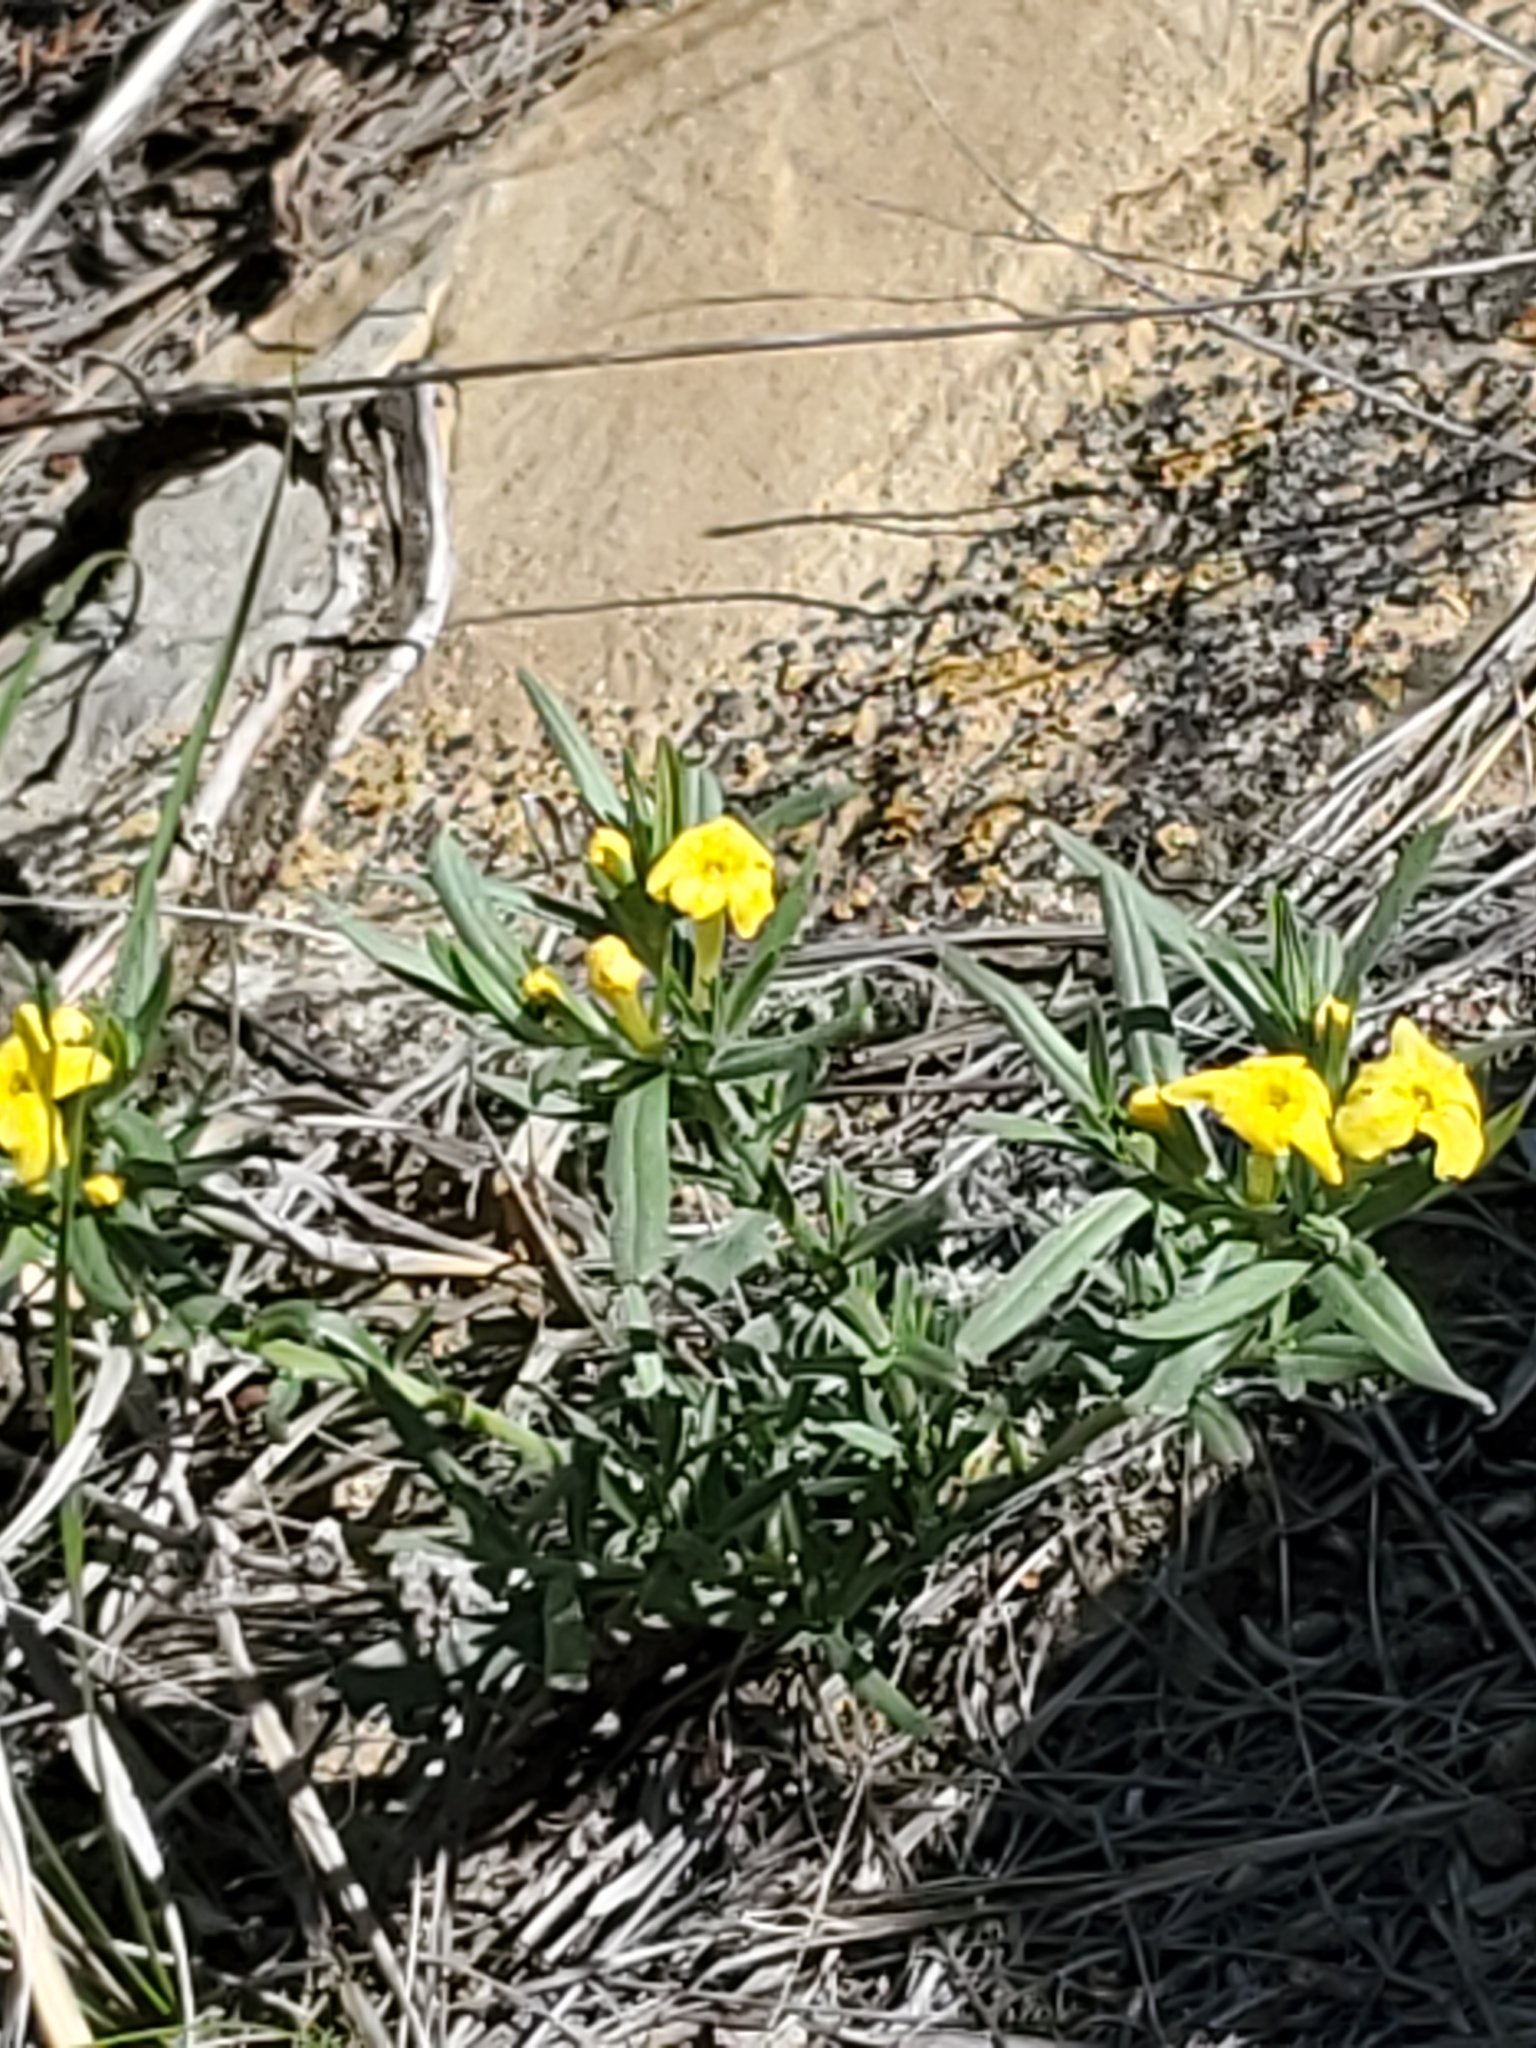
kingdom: Plantae
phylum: Tracheophyta
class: Magnoliopsida
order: Boraginales
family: Boraginaceae
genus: Lithospermum
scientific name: Lithospermum incisum
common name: Fringed gromwell
